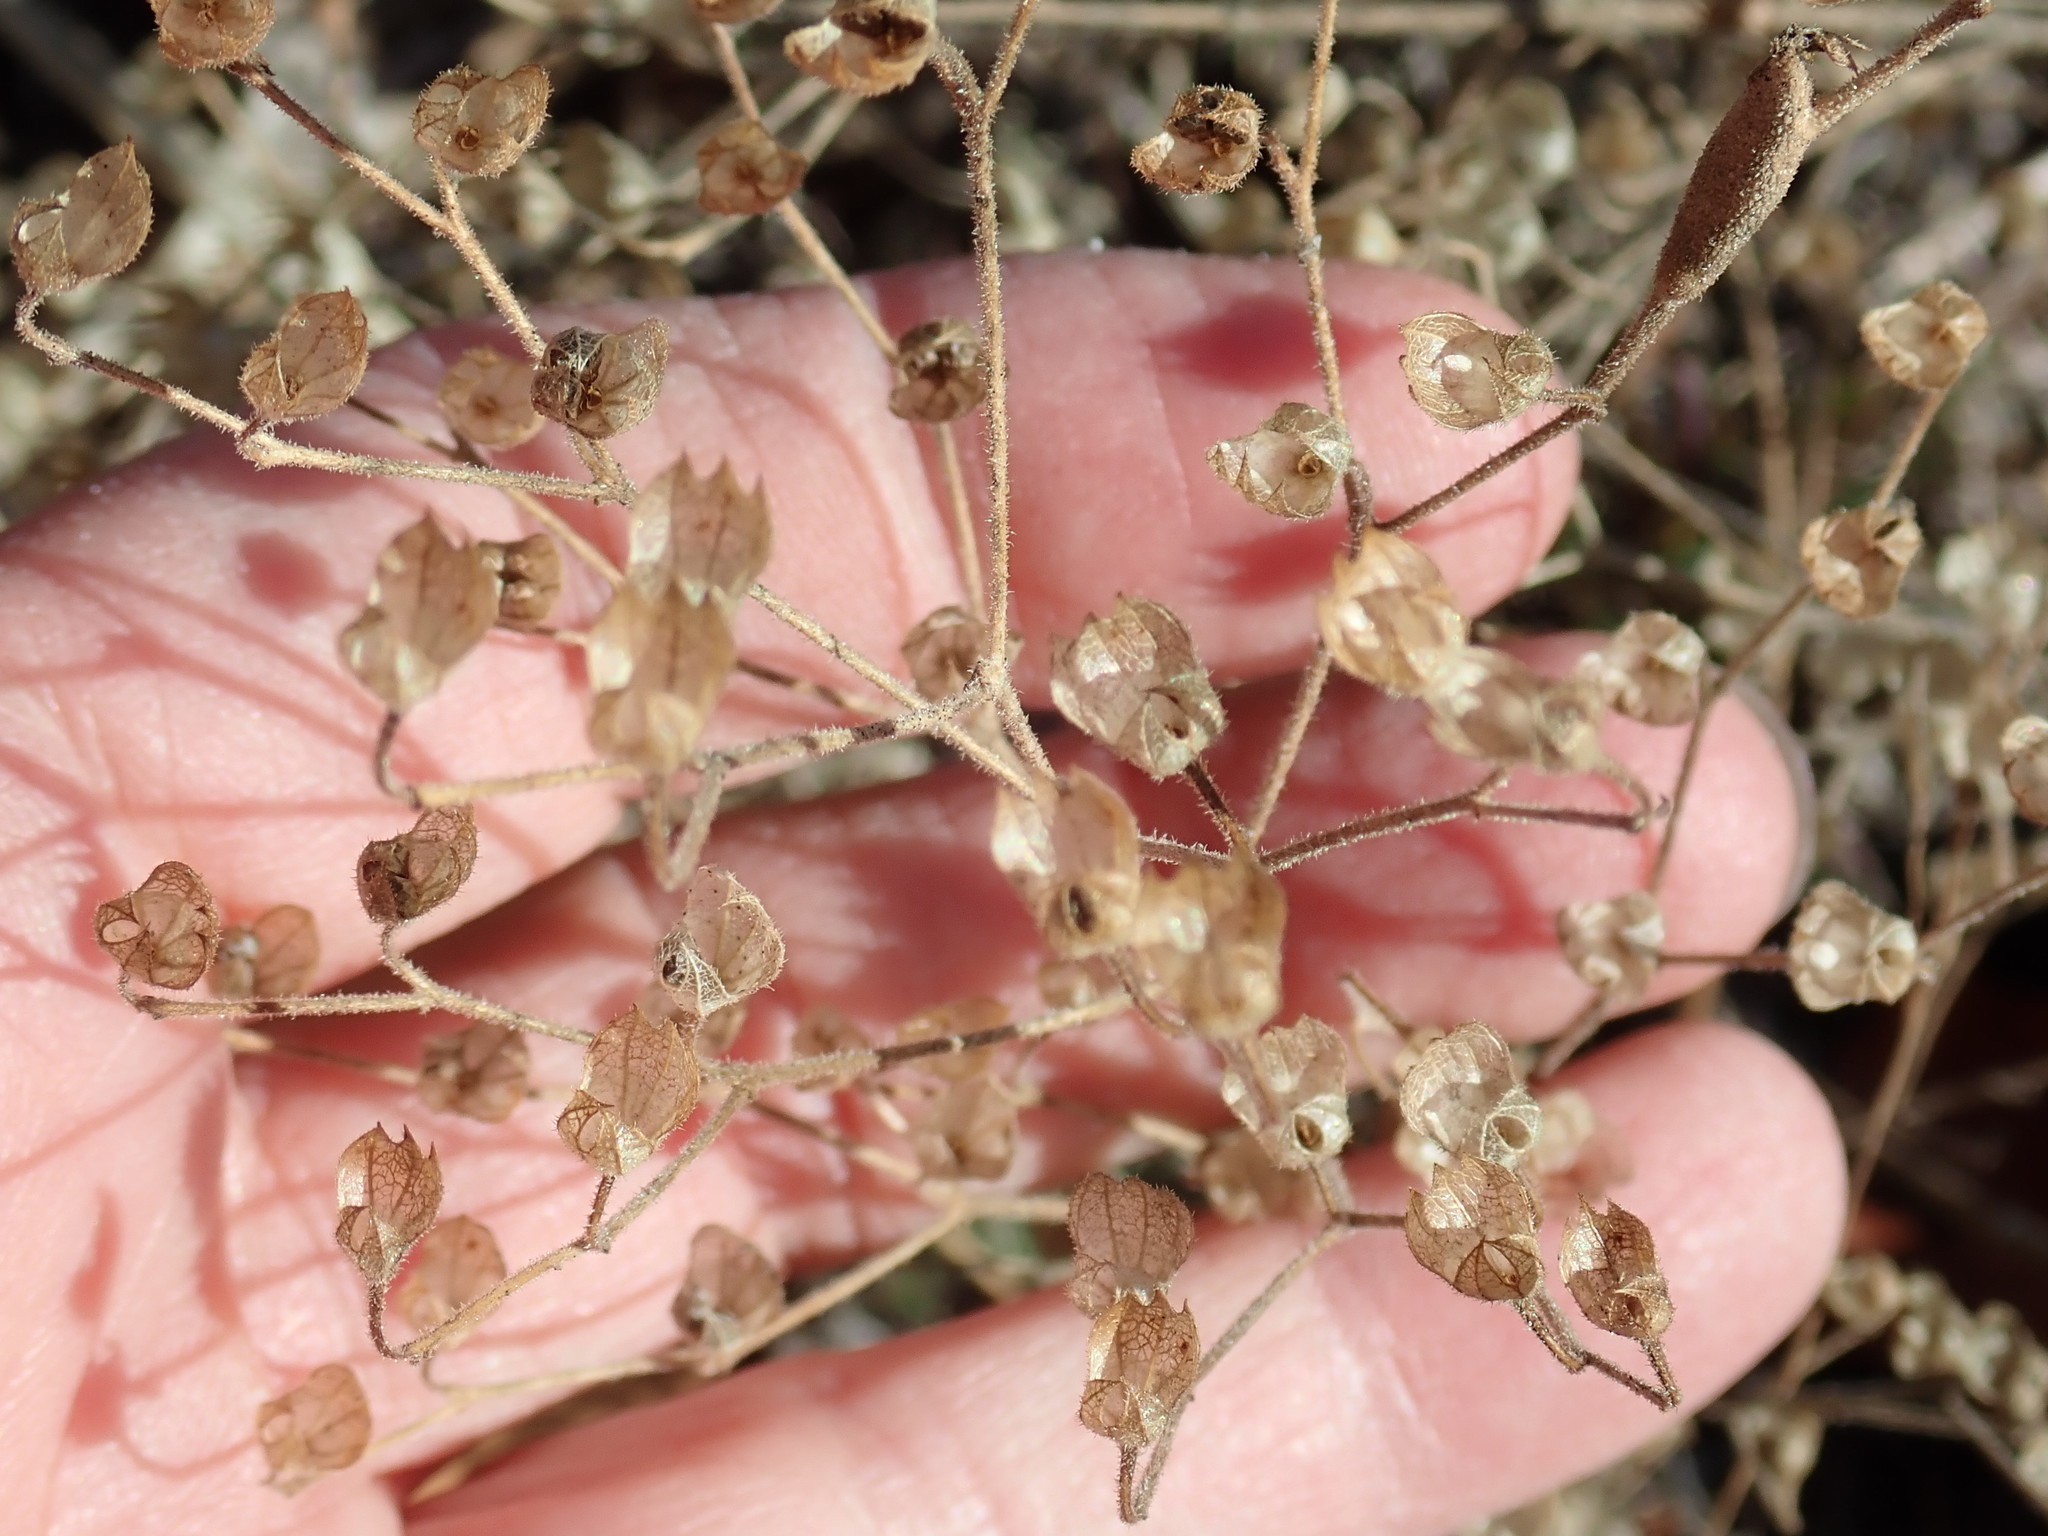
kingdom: Plantae
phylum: Tracheophyta
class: Magnoliopsida
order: Lamiales
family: Lamiaceae
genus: Trichostema
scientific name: Trichostema dichotomum
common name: Bastard pennyroyal
